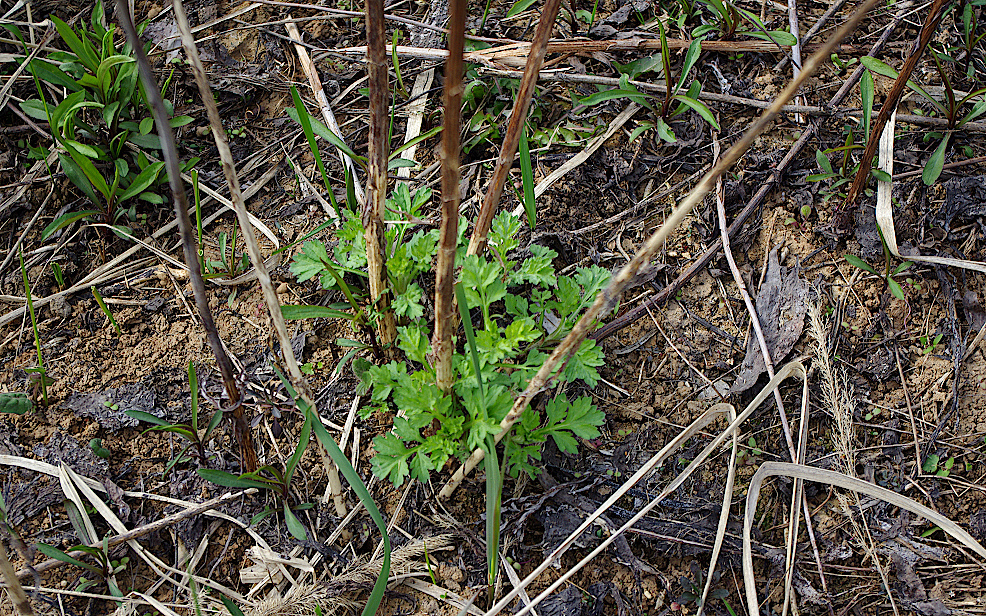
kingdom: Plantae
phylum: Tracheophyta
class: Magnoliopsida
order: Asterales
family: Asteraceae
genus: Artemisia
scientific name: Artemisia vulgaris
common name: Mugwort
